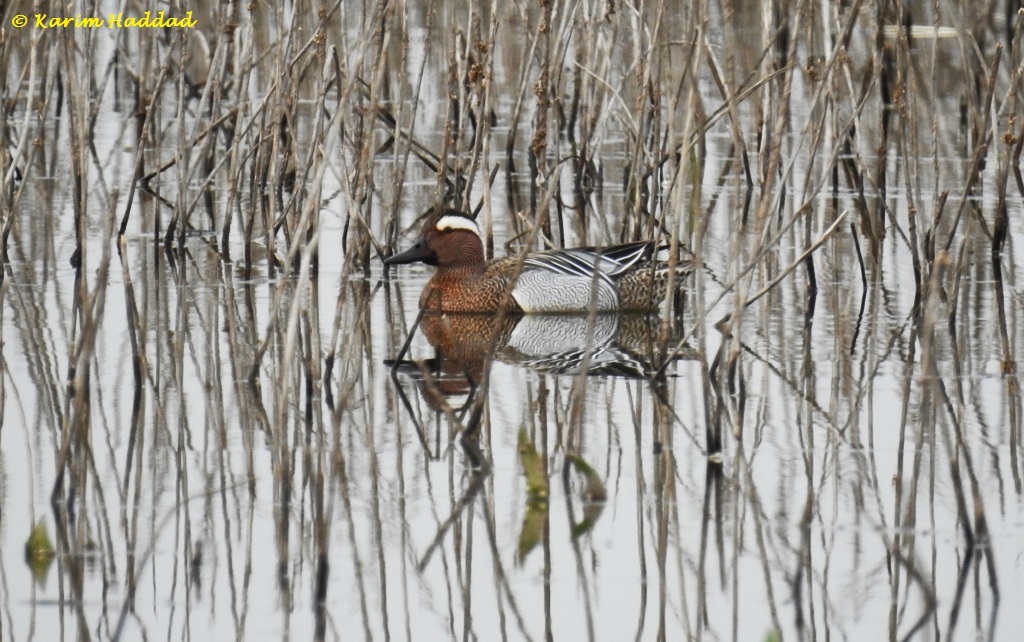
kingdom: Animalia
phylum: Chordata
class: Aves
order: Anseriformes
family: Anatidae
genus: Spatula
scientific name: Spatula querquedula
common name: Garganey
